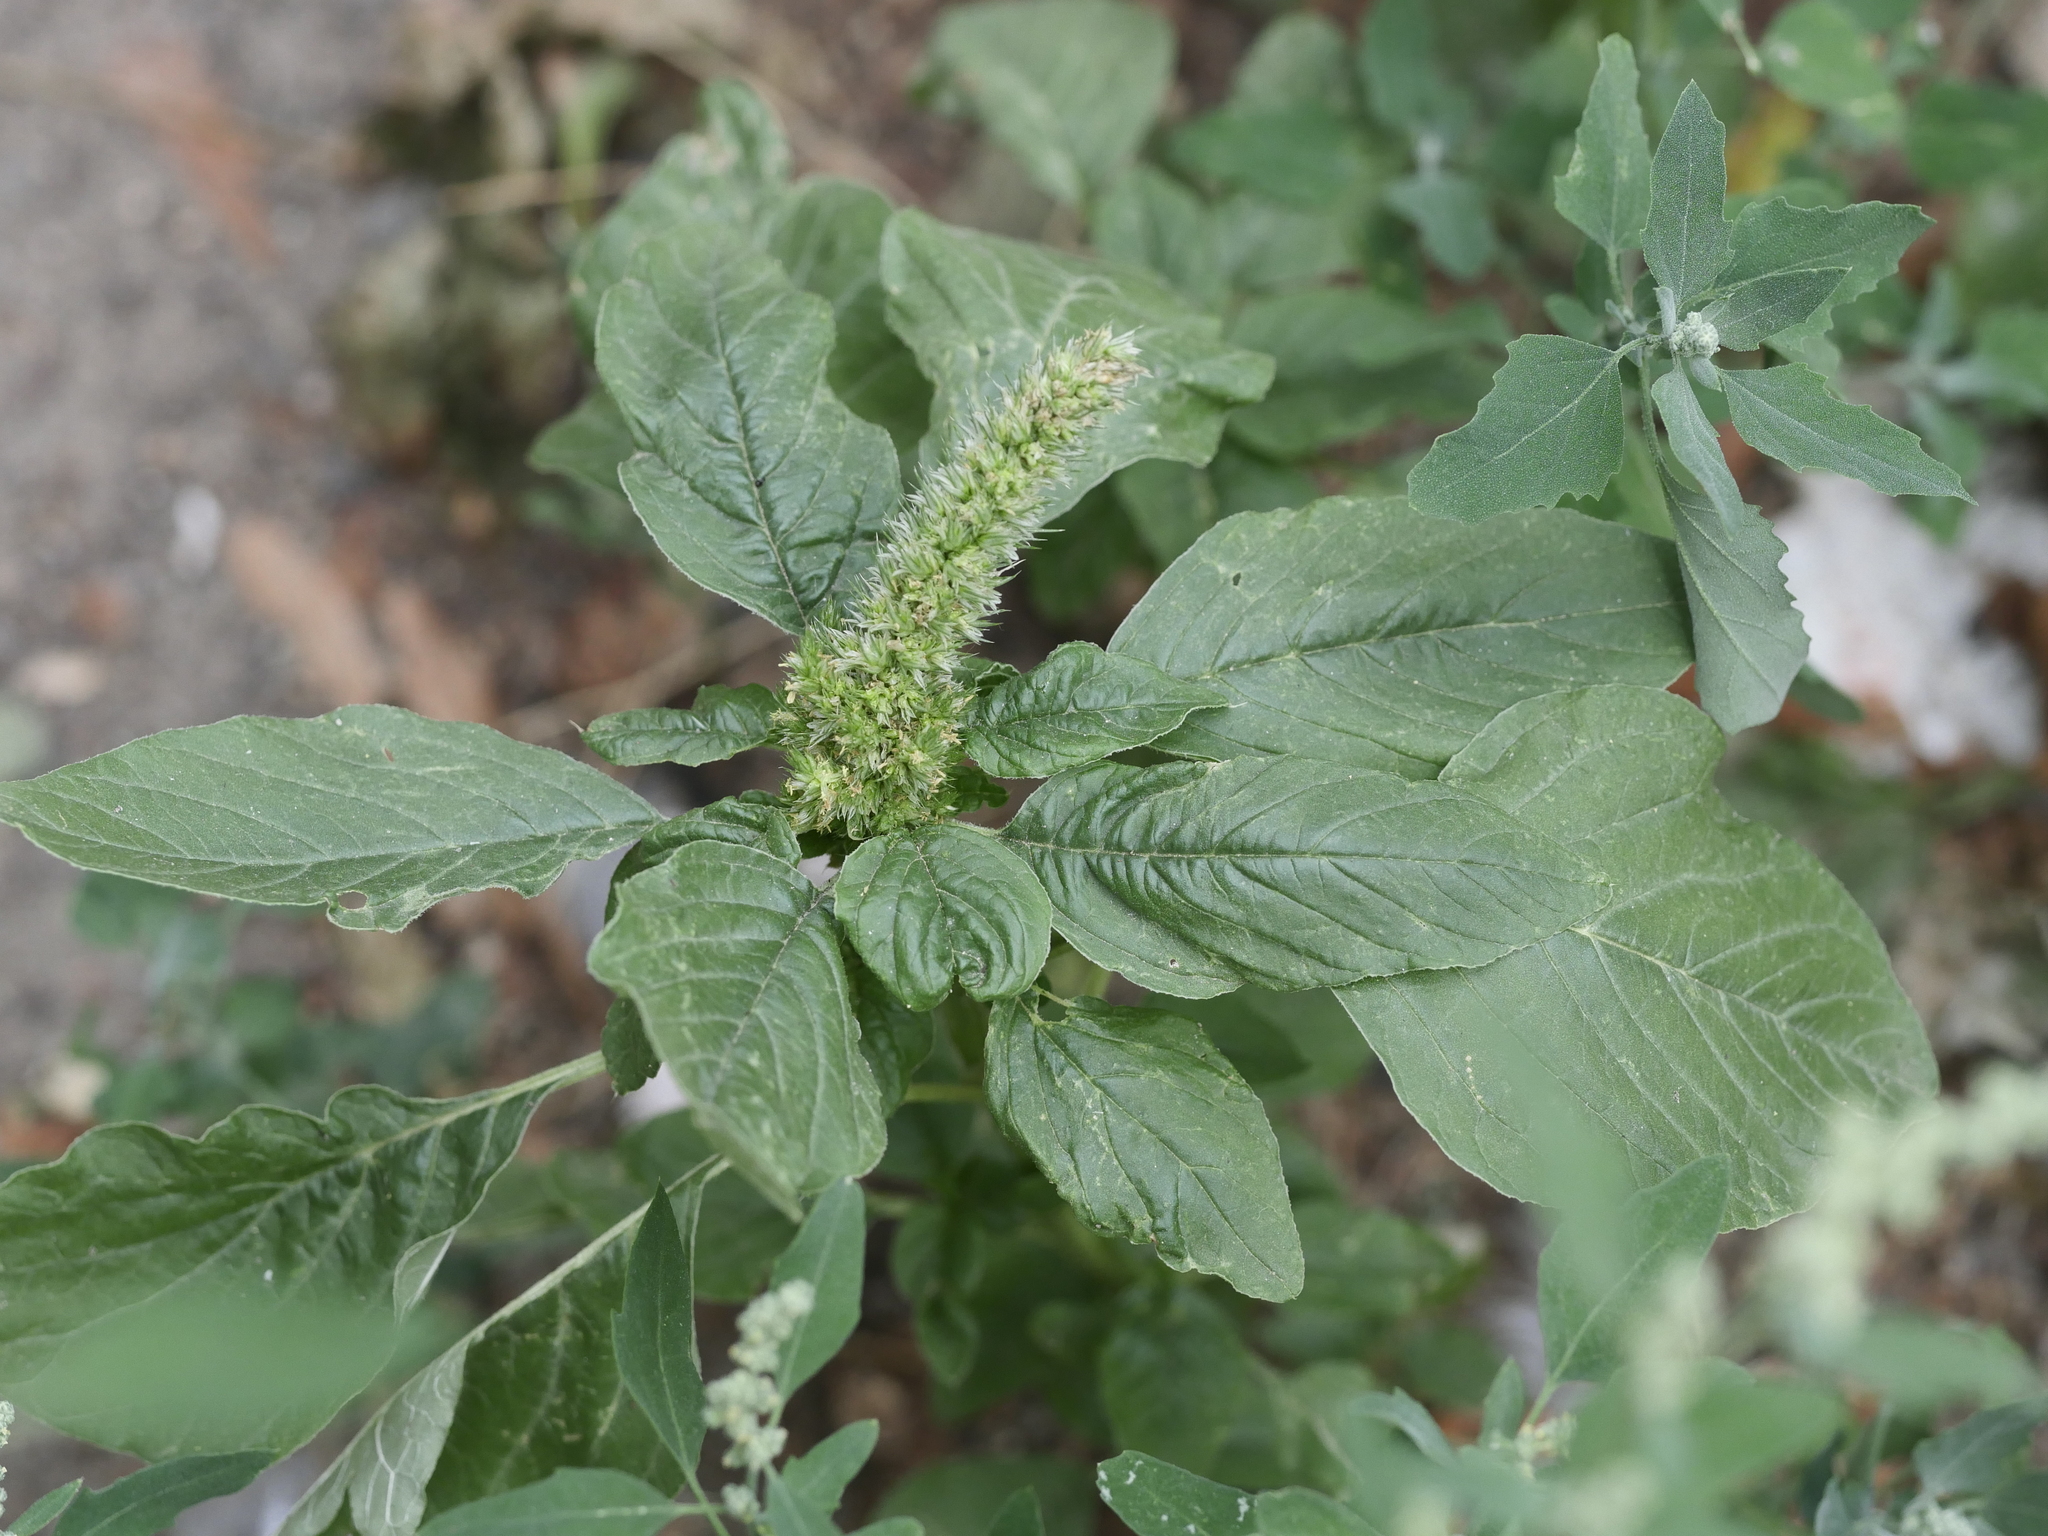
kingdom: Plantae
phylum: Tracheophyta
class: Magnoliopsida
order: Caryophyllales
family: Amaranthaceae
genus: Amaranthus
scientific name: Amaranthus retroflexus
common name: Redroot amaranth
